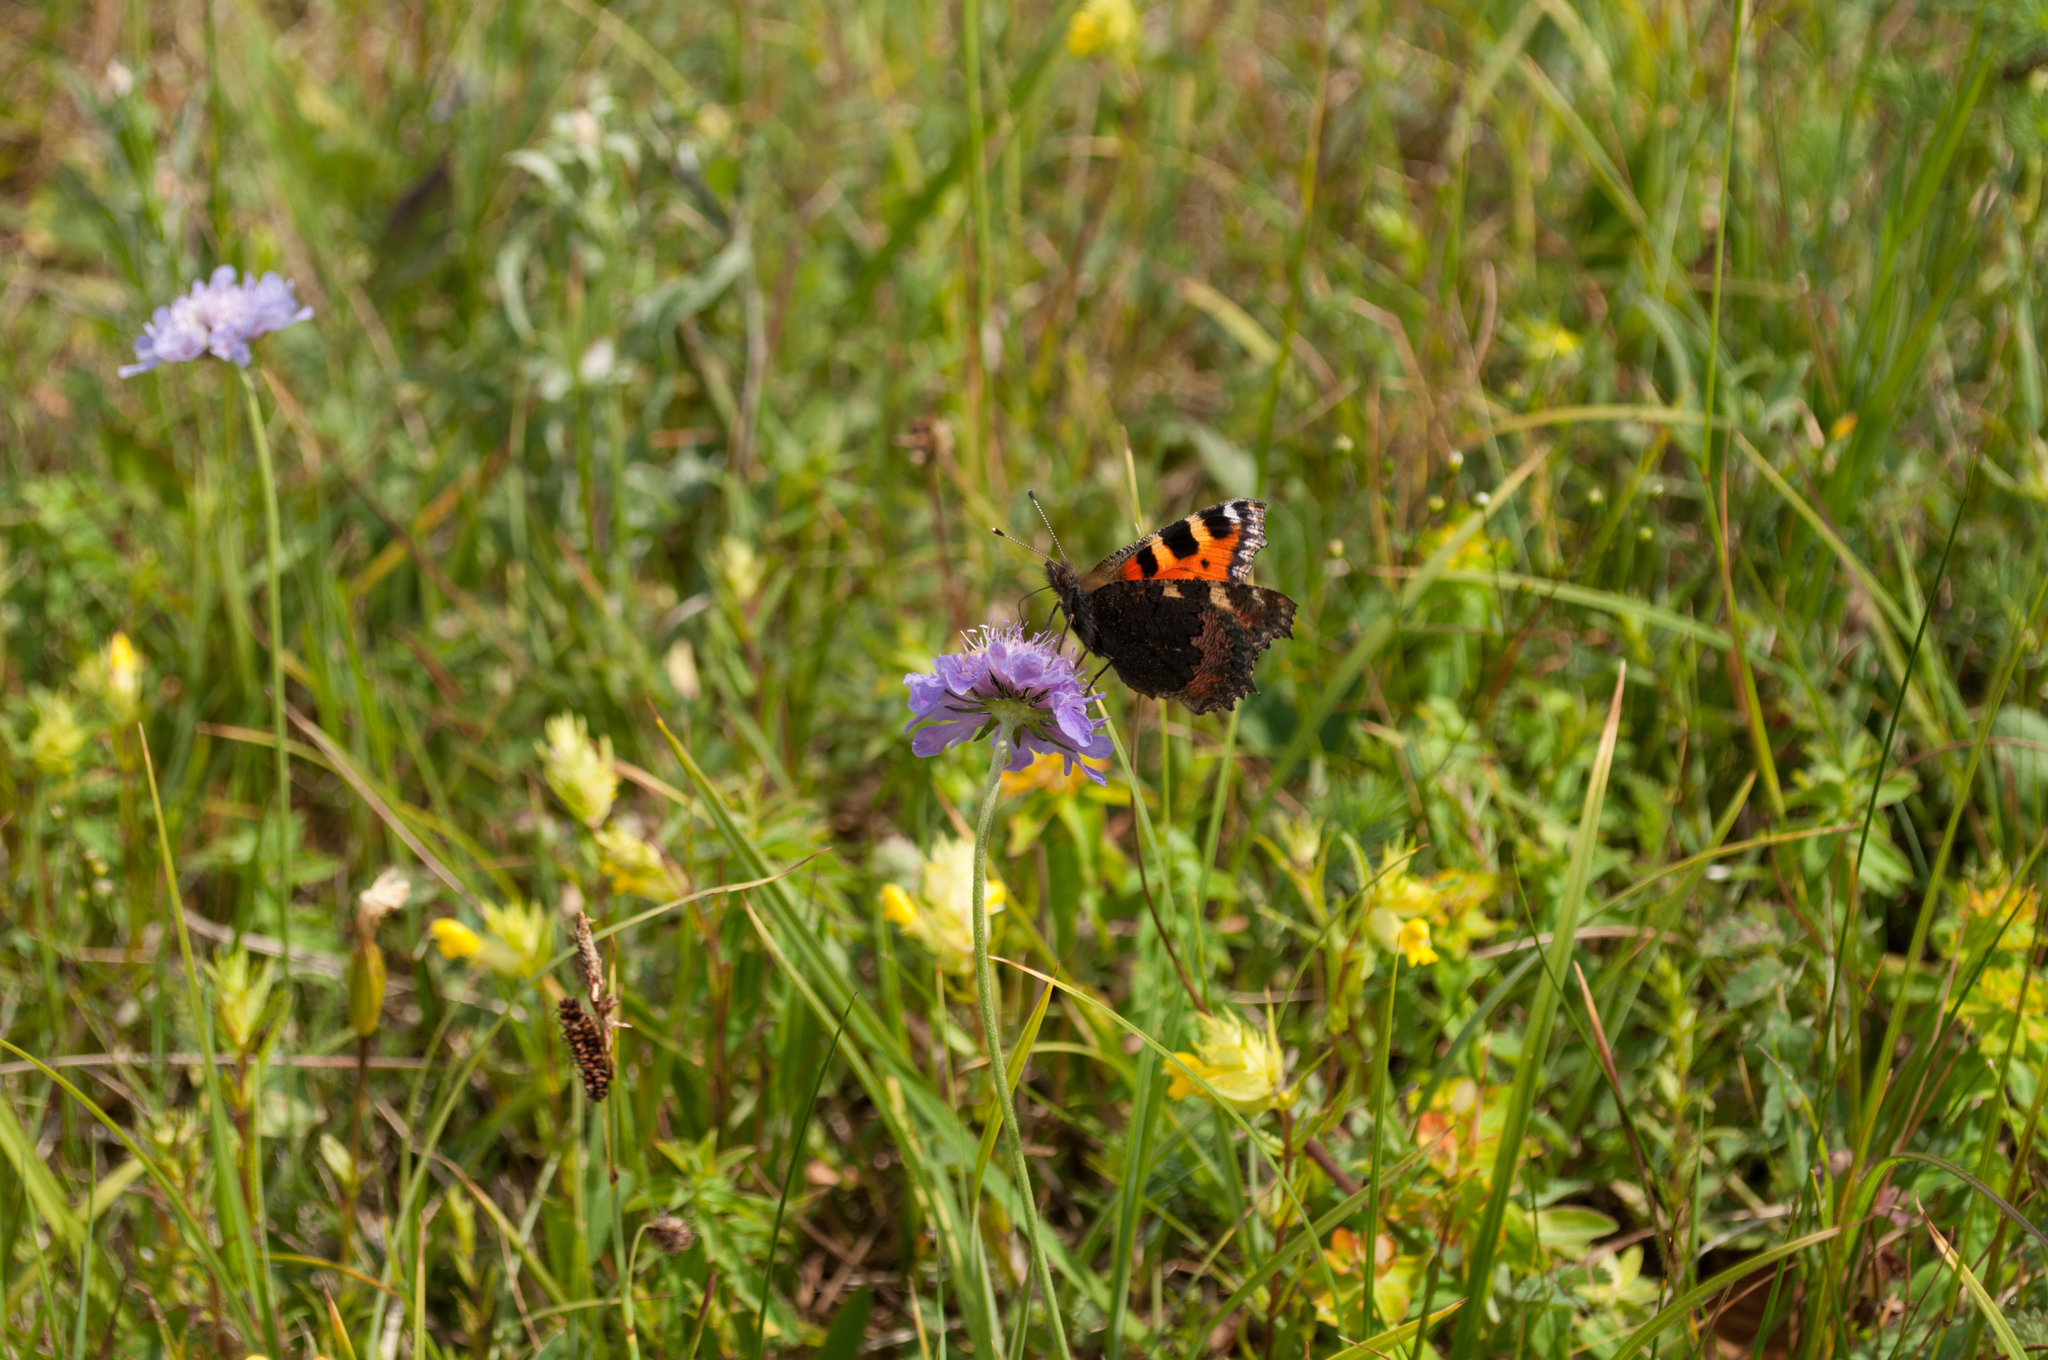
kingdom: Animalia
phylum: Arthropoda
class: Insecta
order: Lepidoptera
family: Nymphalidae
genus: Aglais
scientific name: Aglais urticae
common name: Small tortoiseshell
